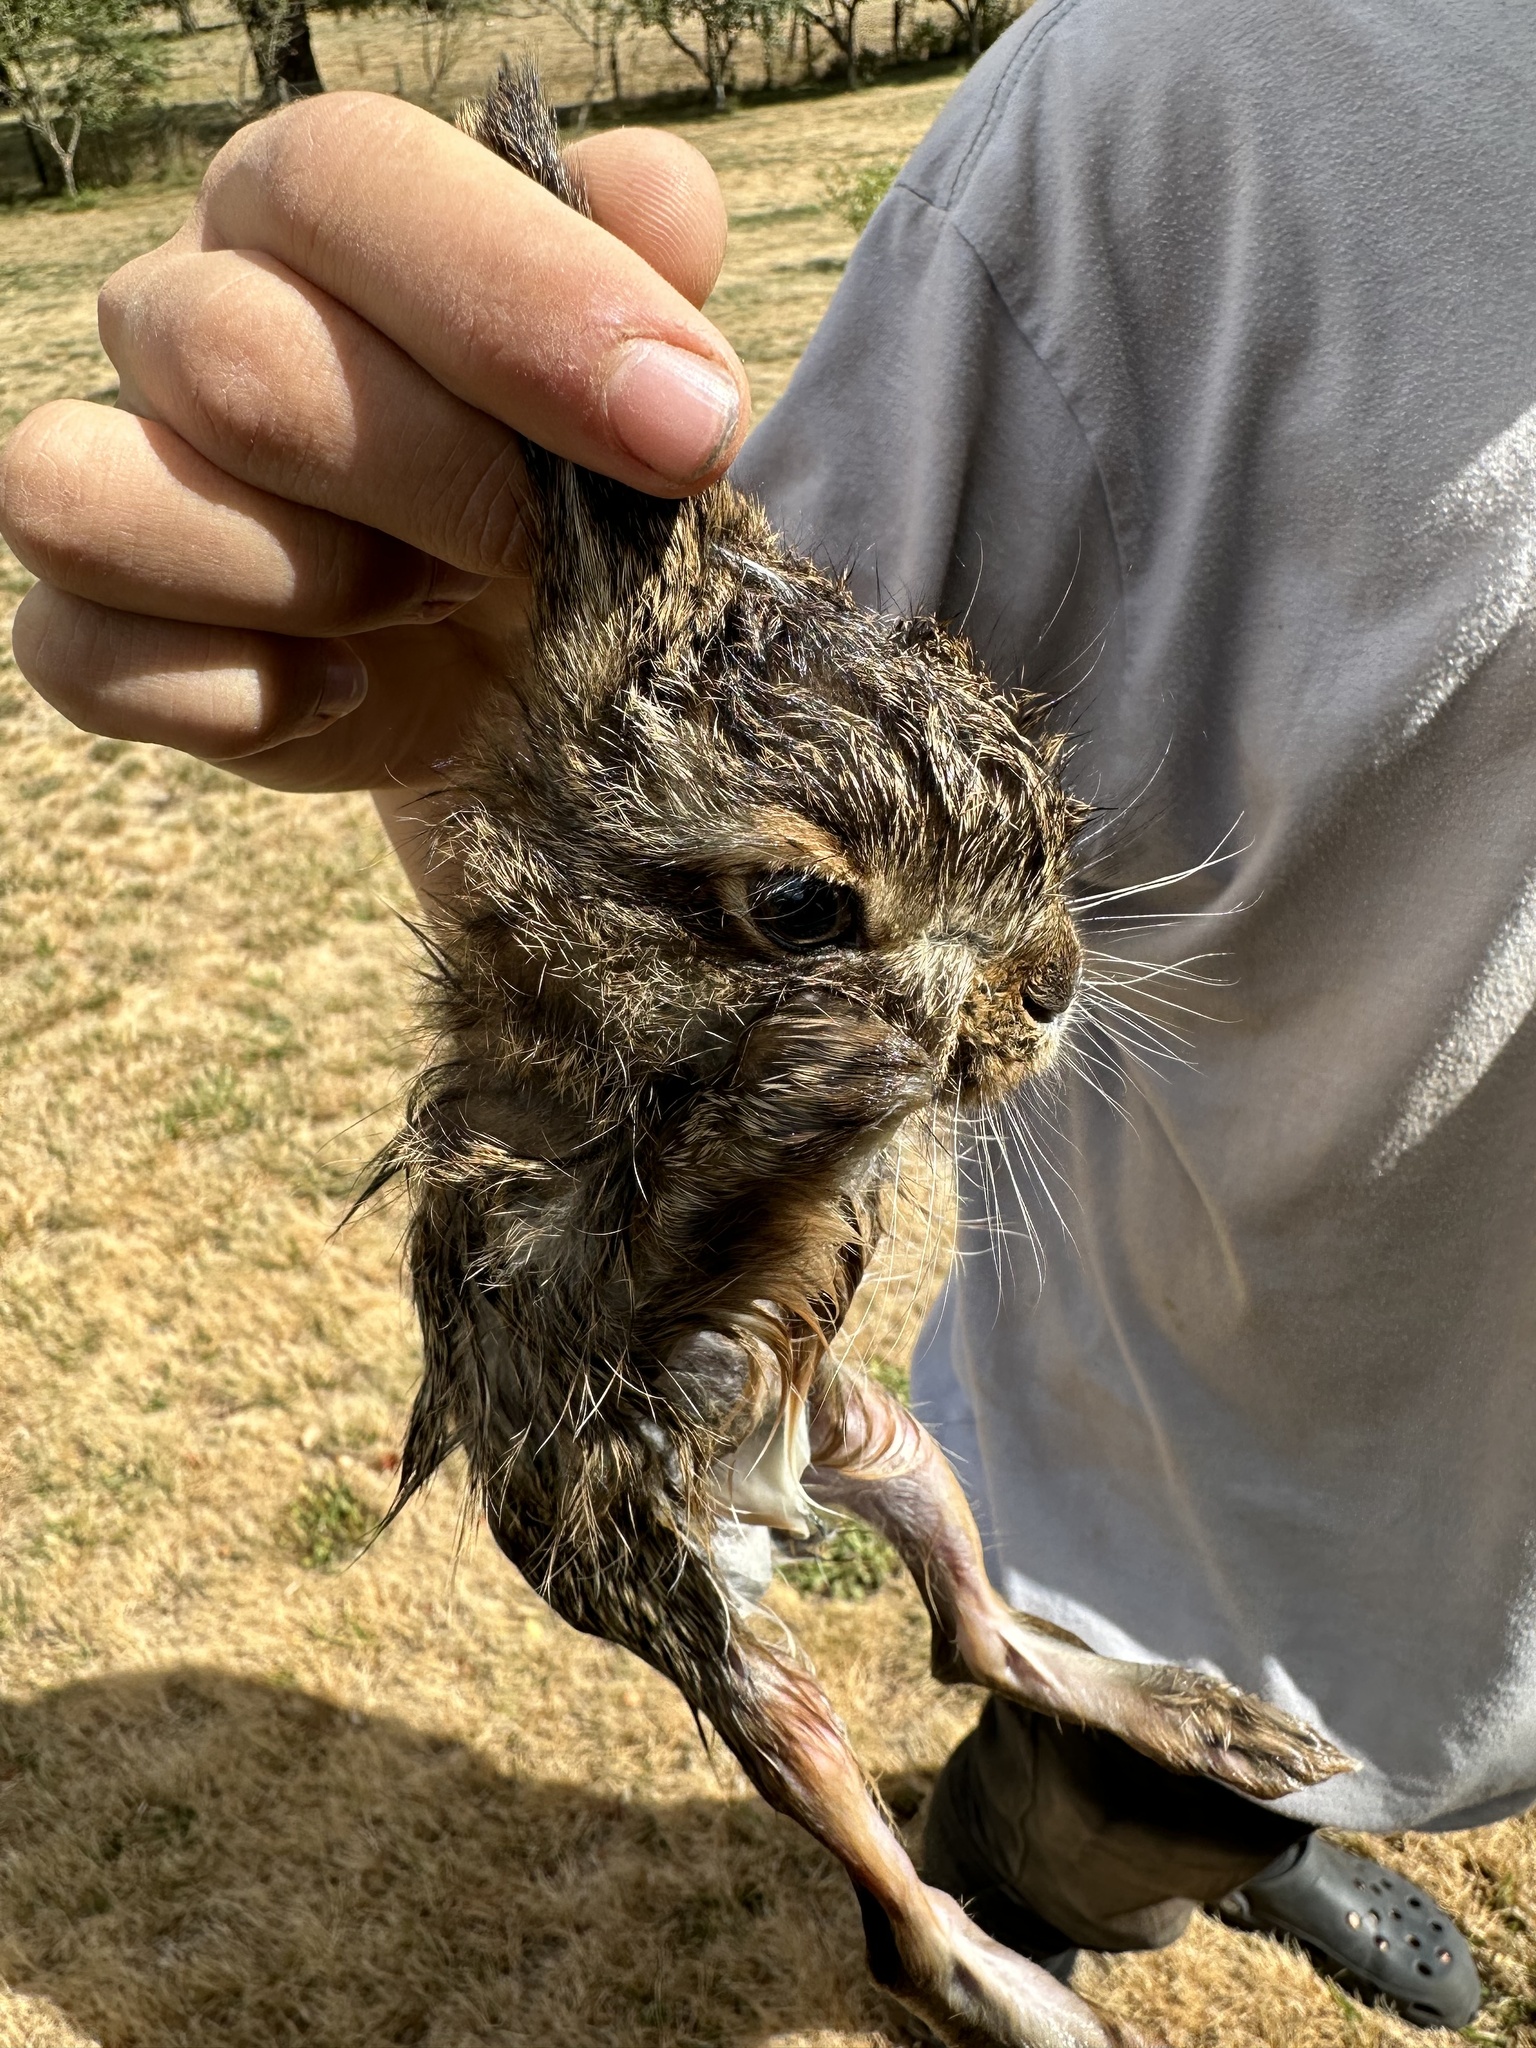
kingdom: Animalia
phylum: Chordata
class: Mammalia
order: Lagomorpha
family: Leporidae
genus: Lepus
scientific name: Lepus europaeus
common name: European hare
